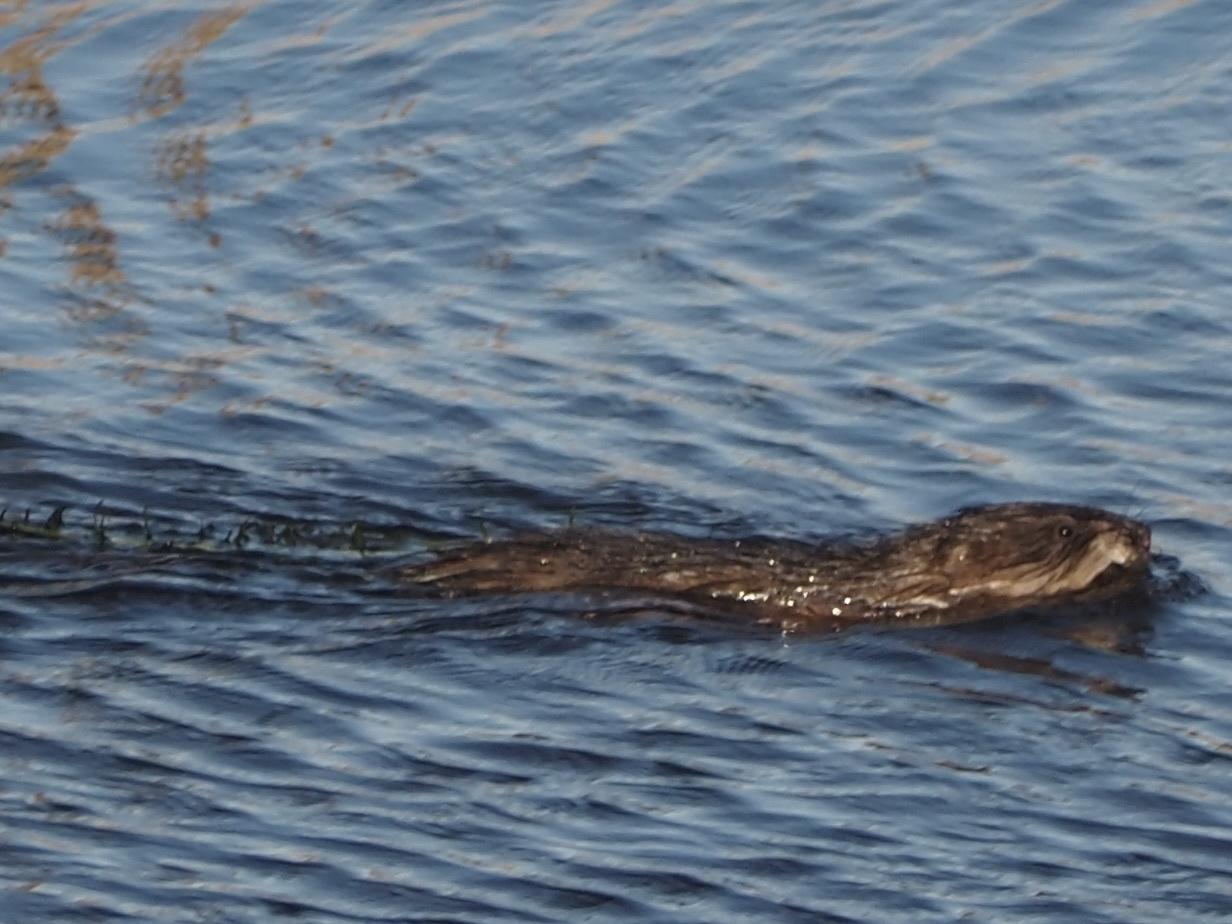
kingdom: Animalia
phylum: Chordata
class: Mammalia
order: Rodentia
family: Cricetidae
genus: Ondatra
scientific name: Ondatra zibethicus
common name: Muskrat
